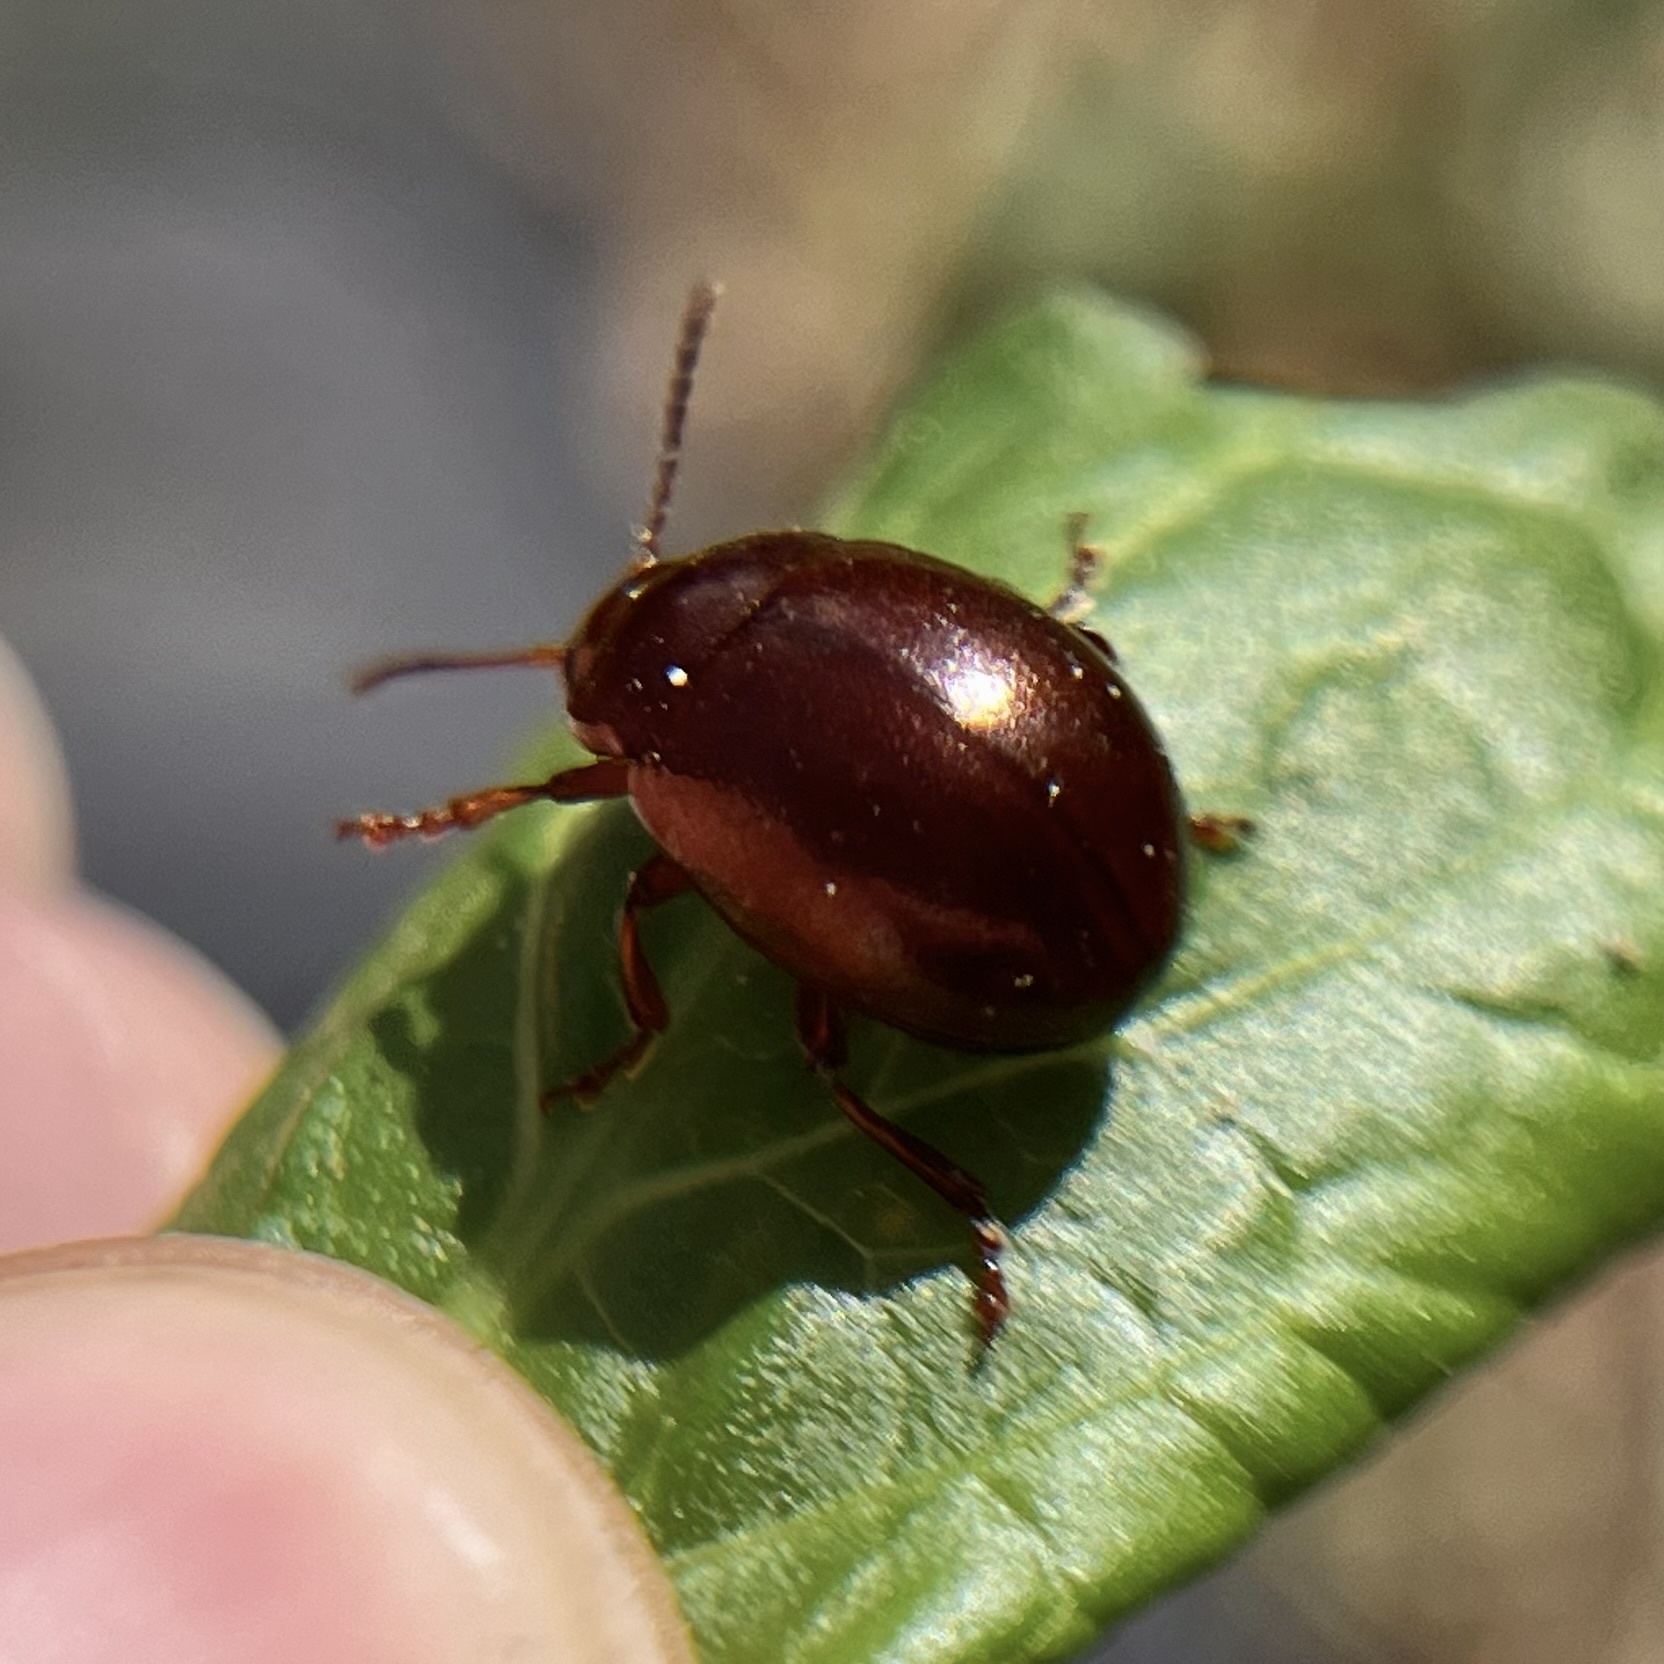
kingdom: Animalia
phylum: Arthropoda
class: Insecta
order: Coleoptera
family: Chrysomelidae
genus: Chrysolina
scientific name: Chrysolina staphylaea
